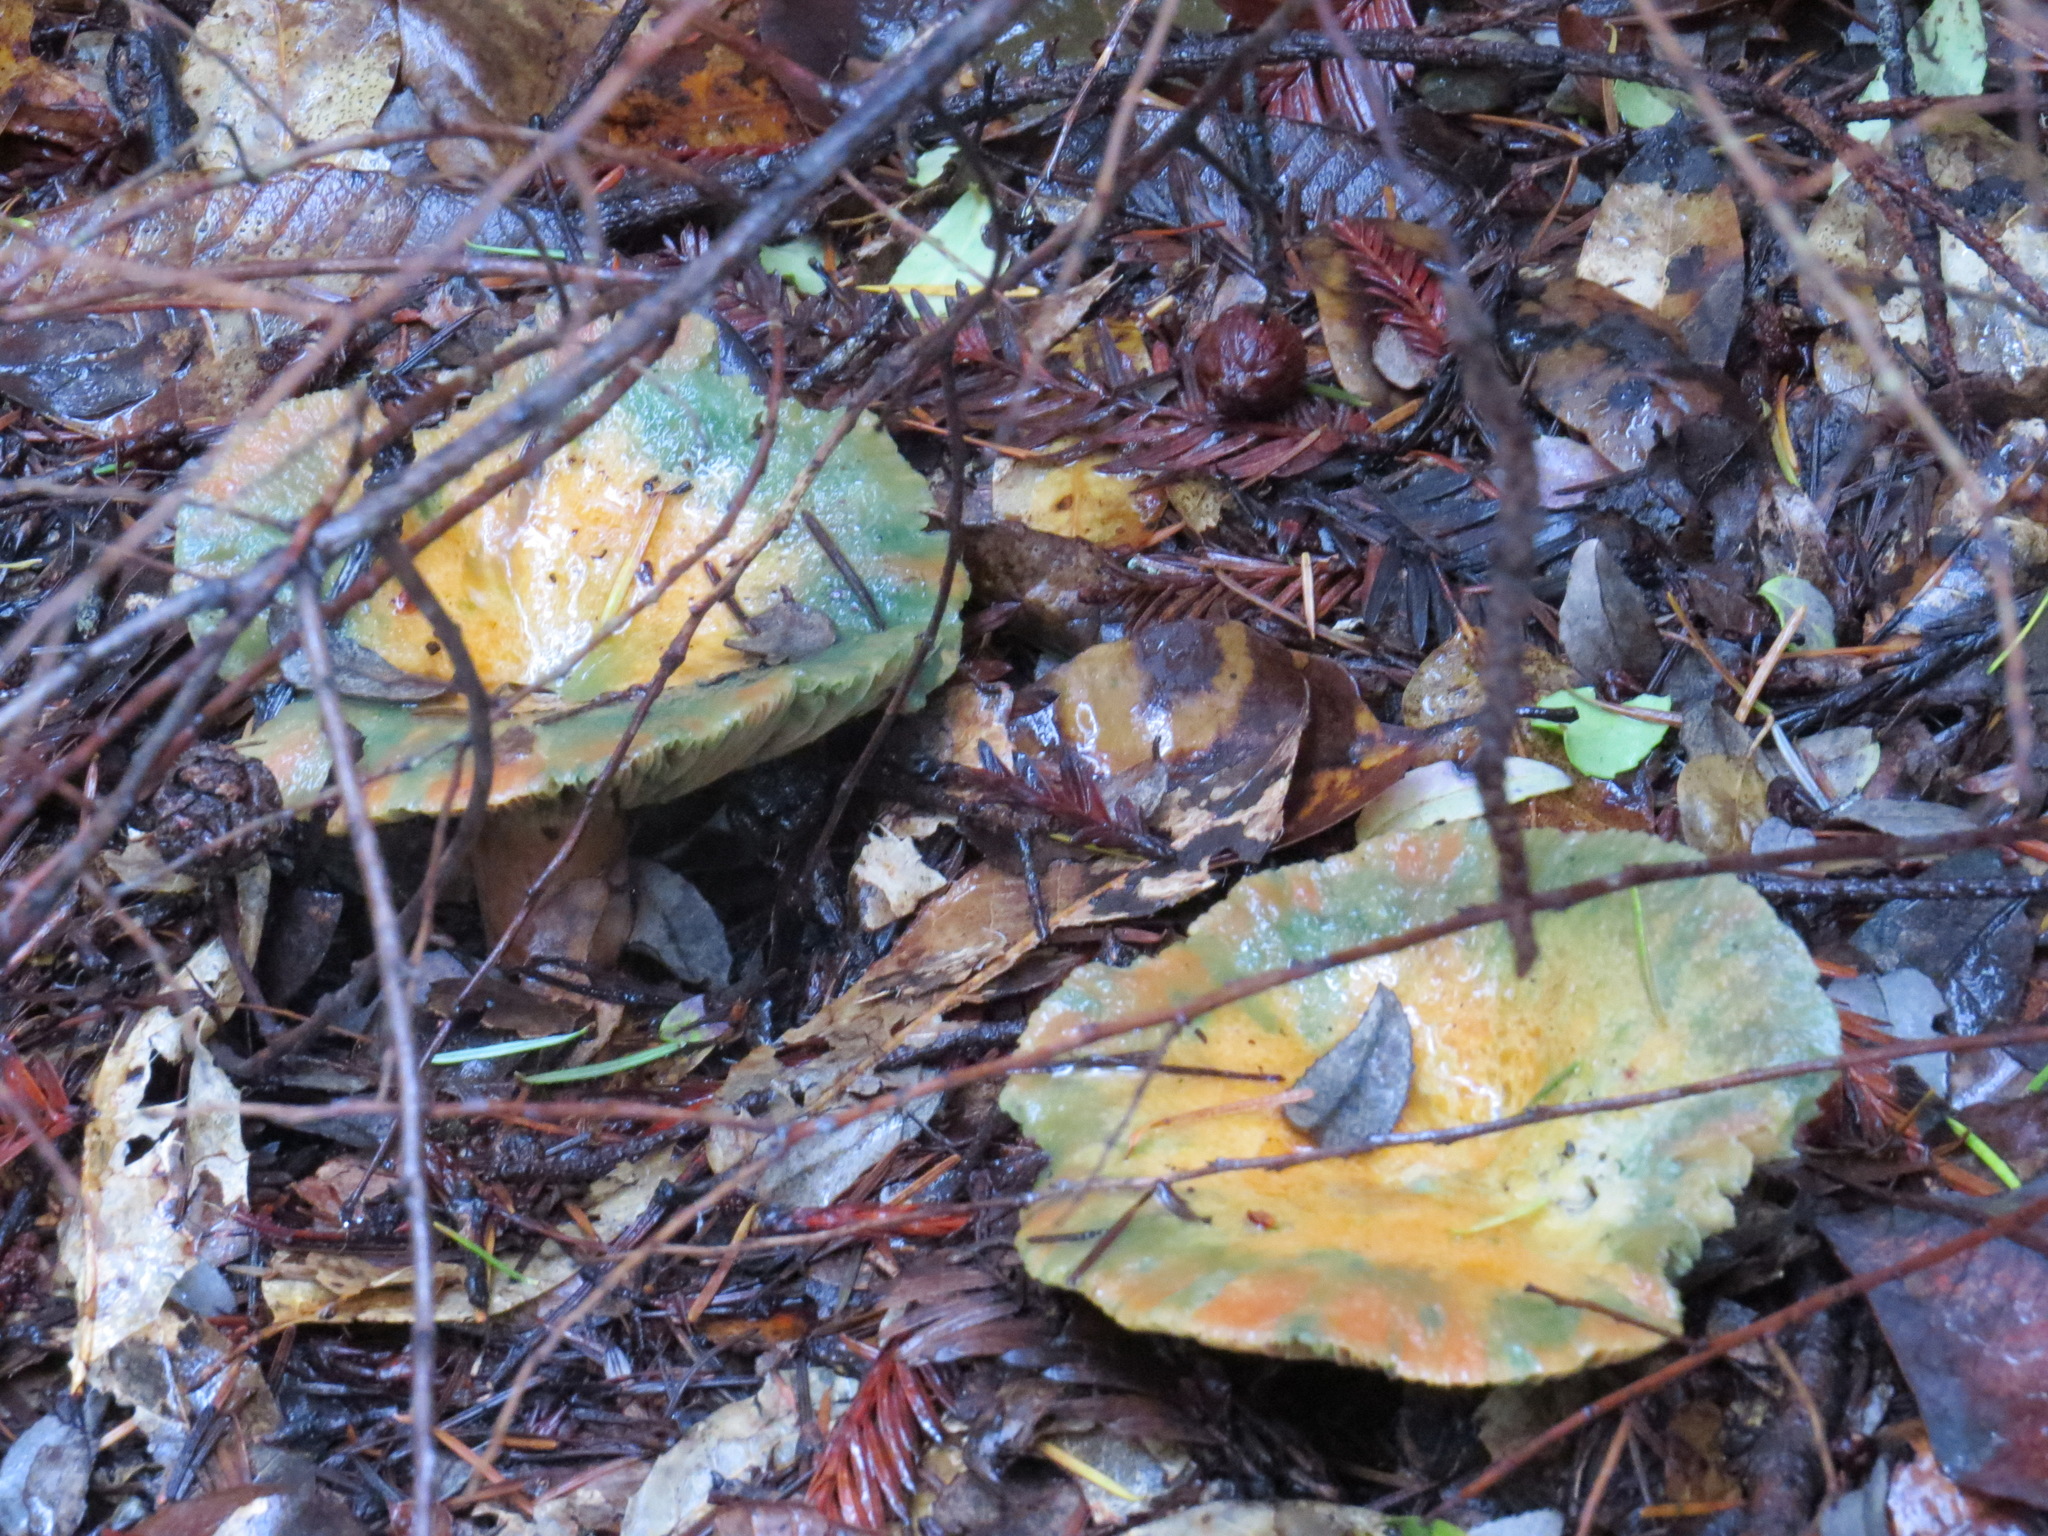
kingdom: Fungi
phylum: Basidiomycota
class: Agaricomycetes
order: Russulales
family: Russulaceae
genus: Lactarius
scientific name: Lactarius rubrilacteus
